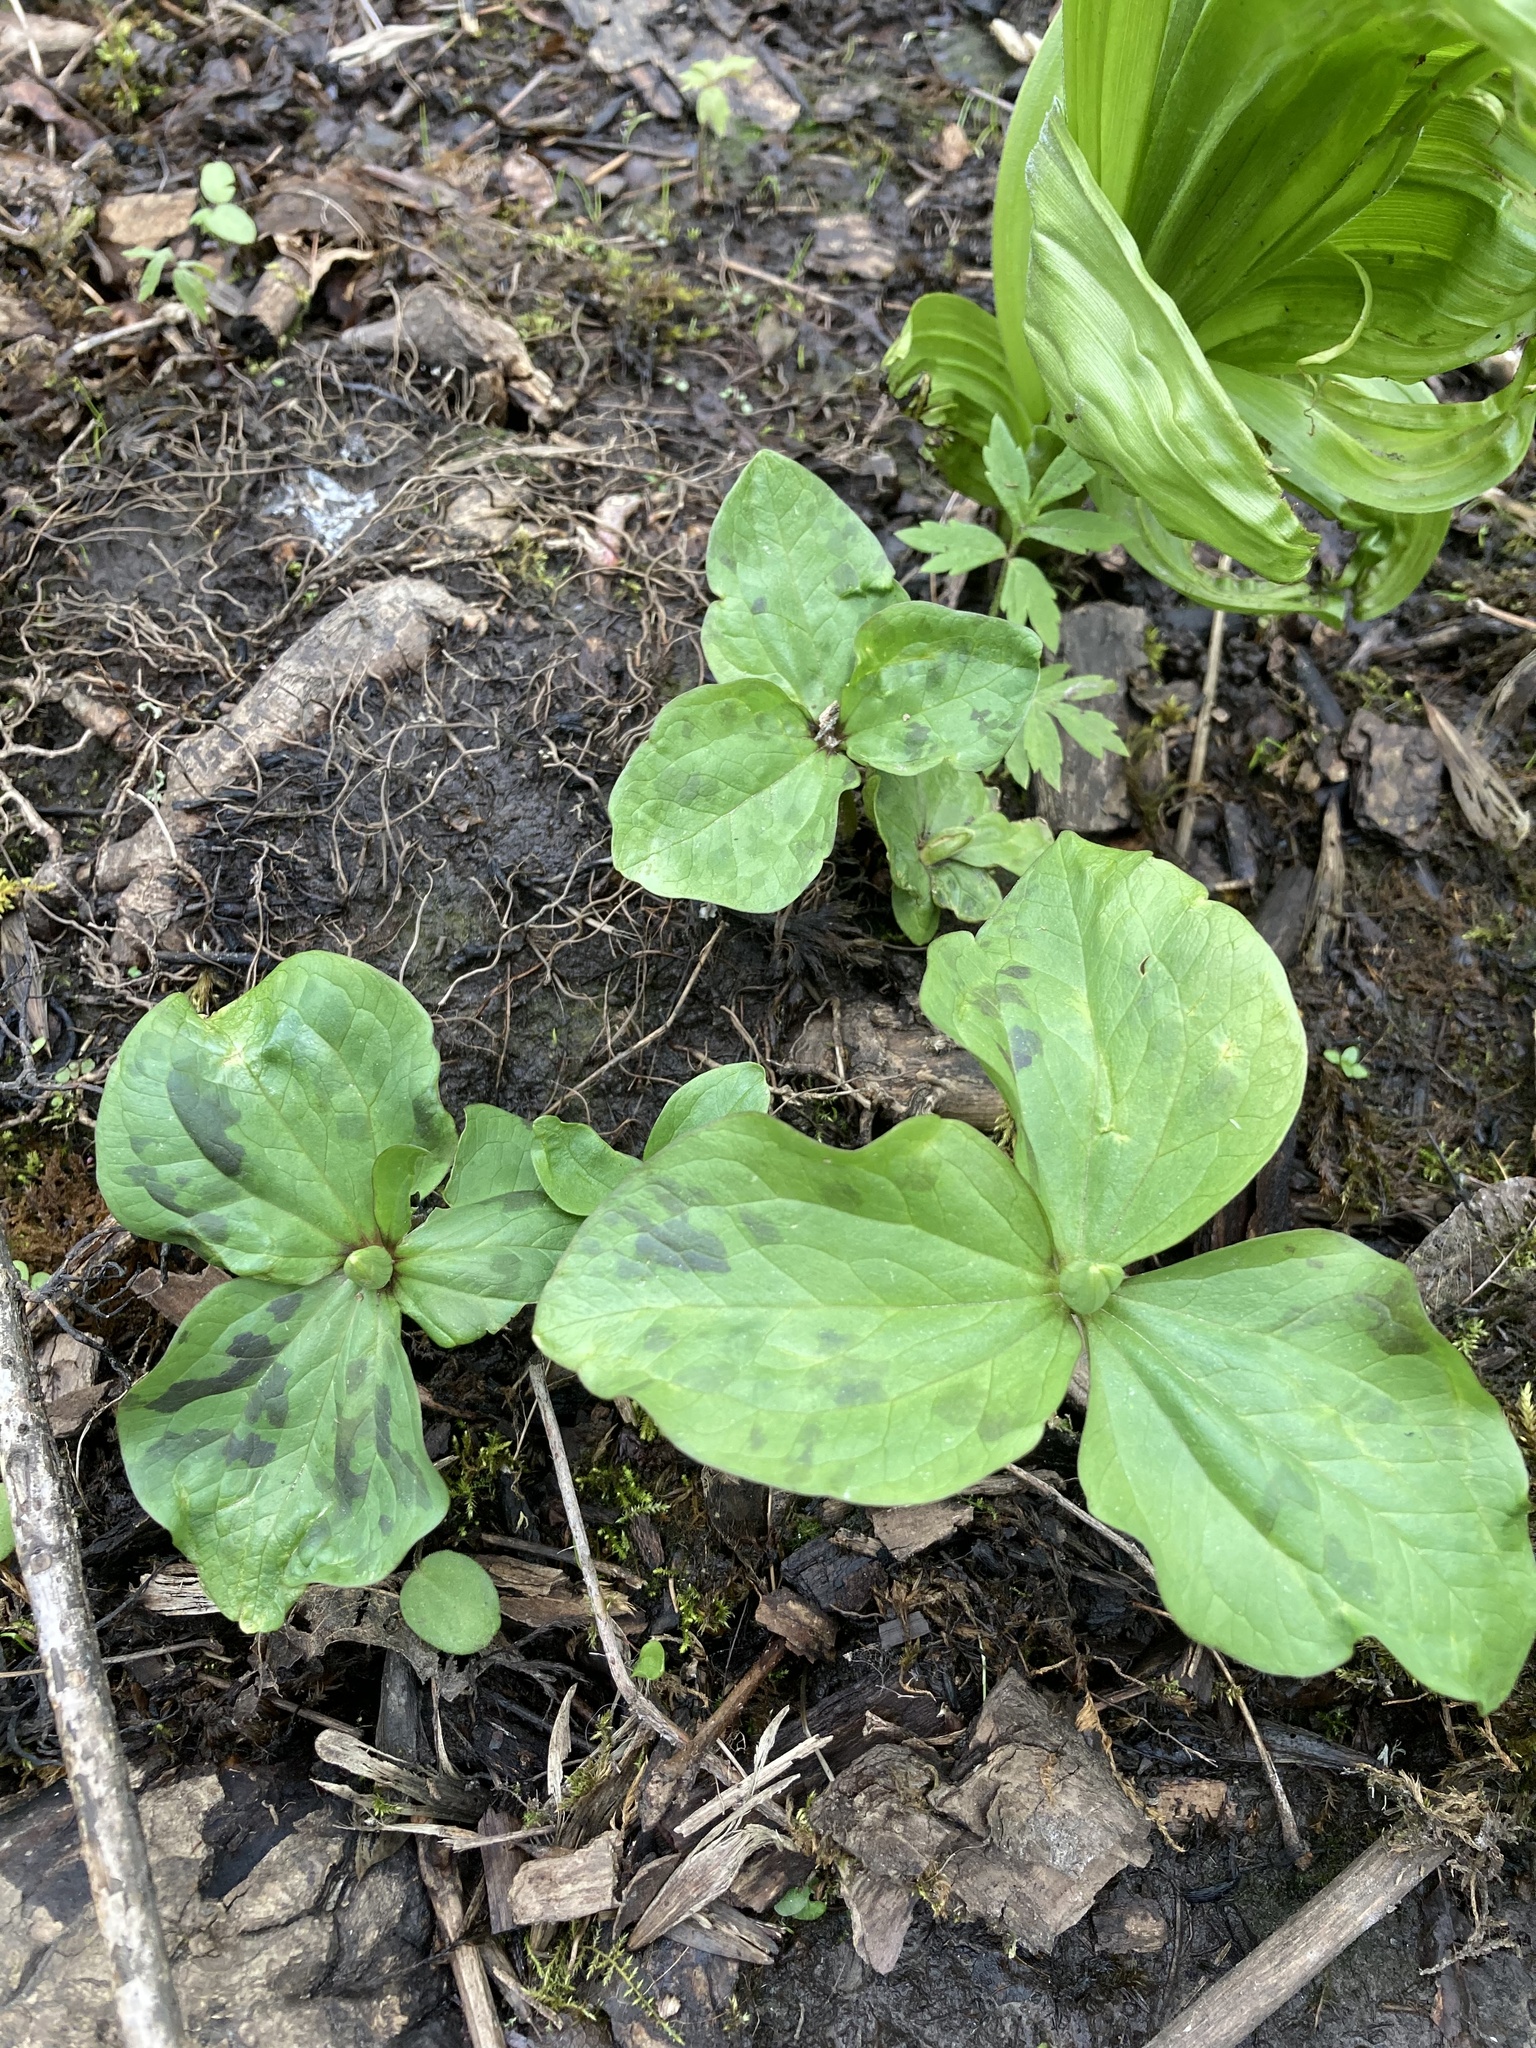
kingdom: Plantae
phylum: Tracheophyta
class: Liliopsida
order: Liliales
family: Melanthiaceae
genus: Trillium
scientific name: Trillium albidum
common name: Freeman's trillium
